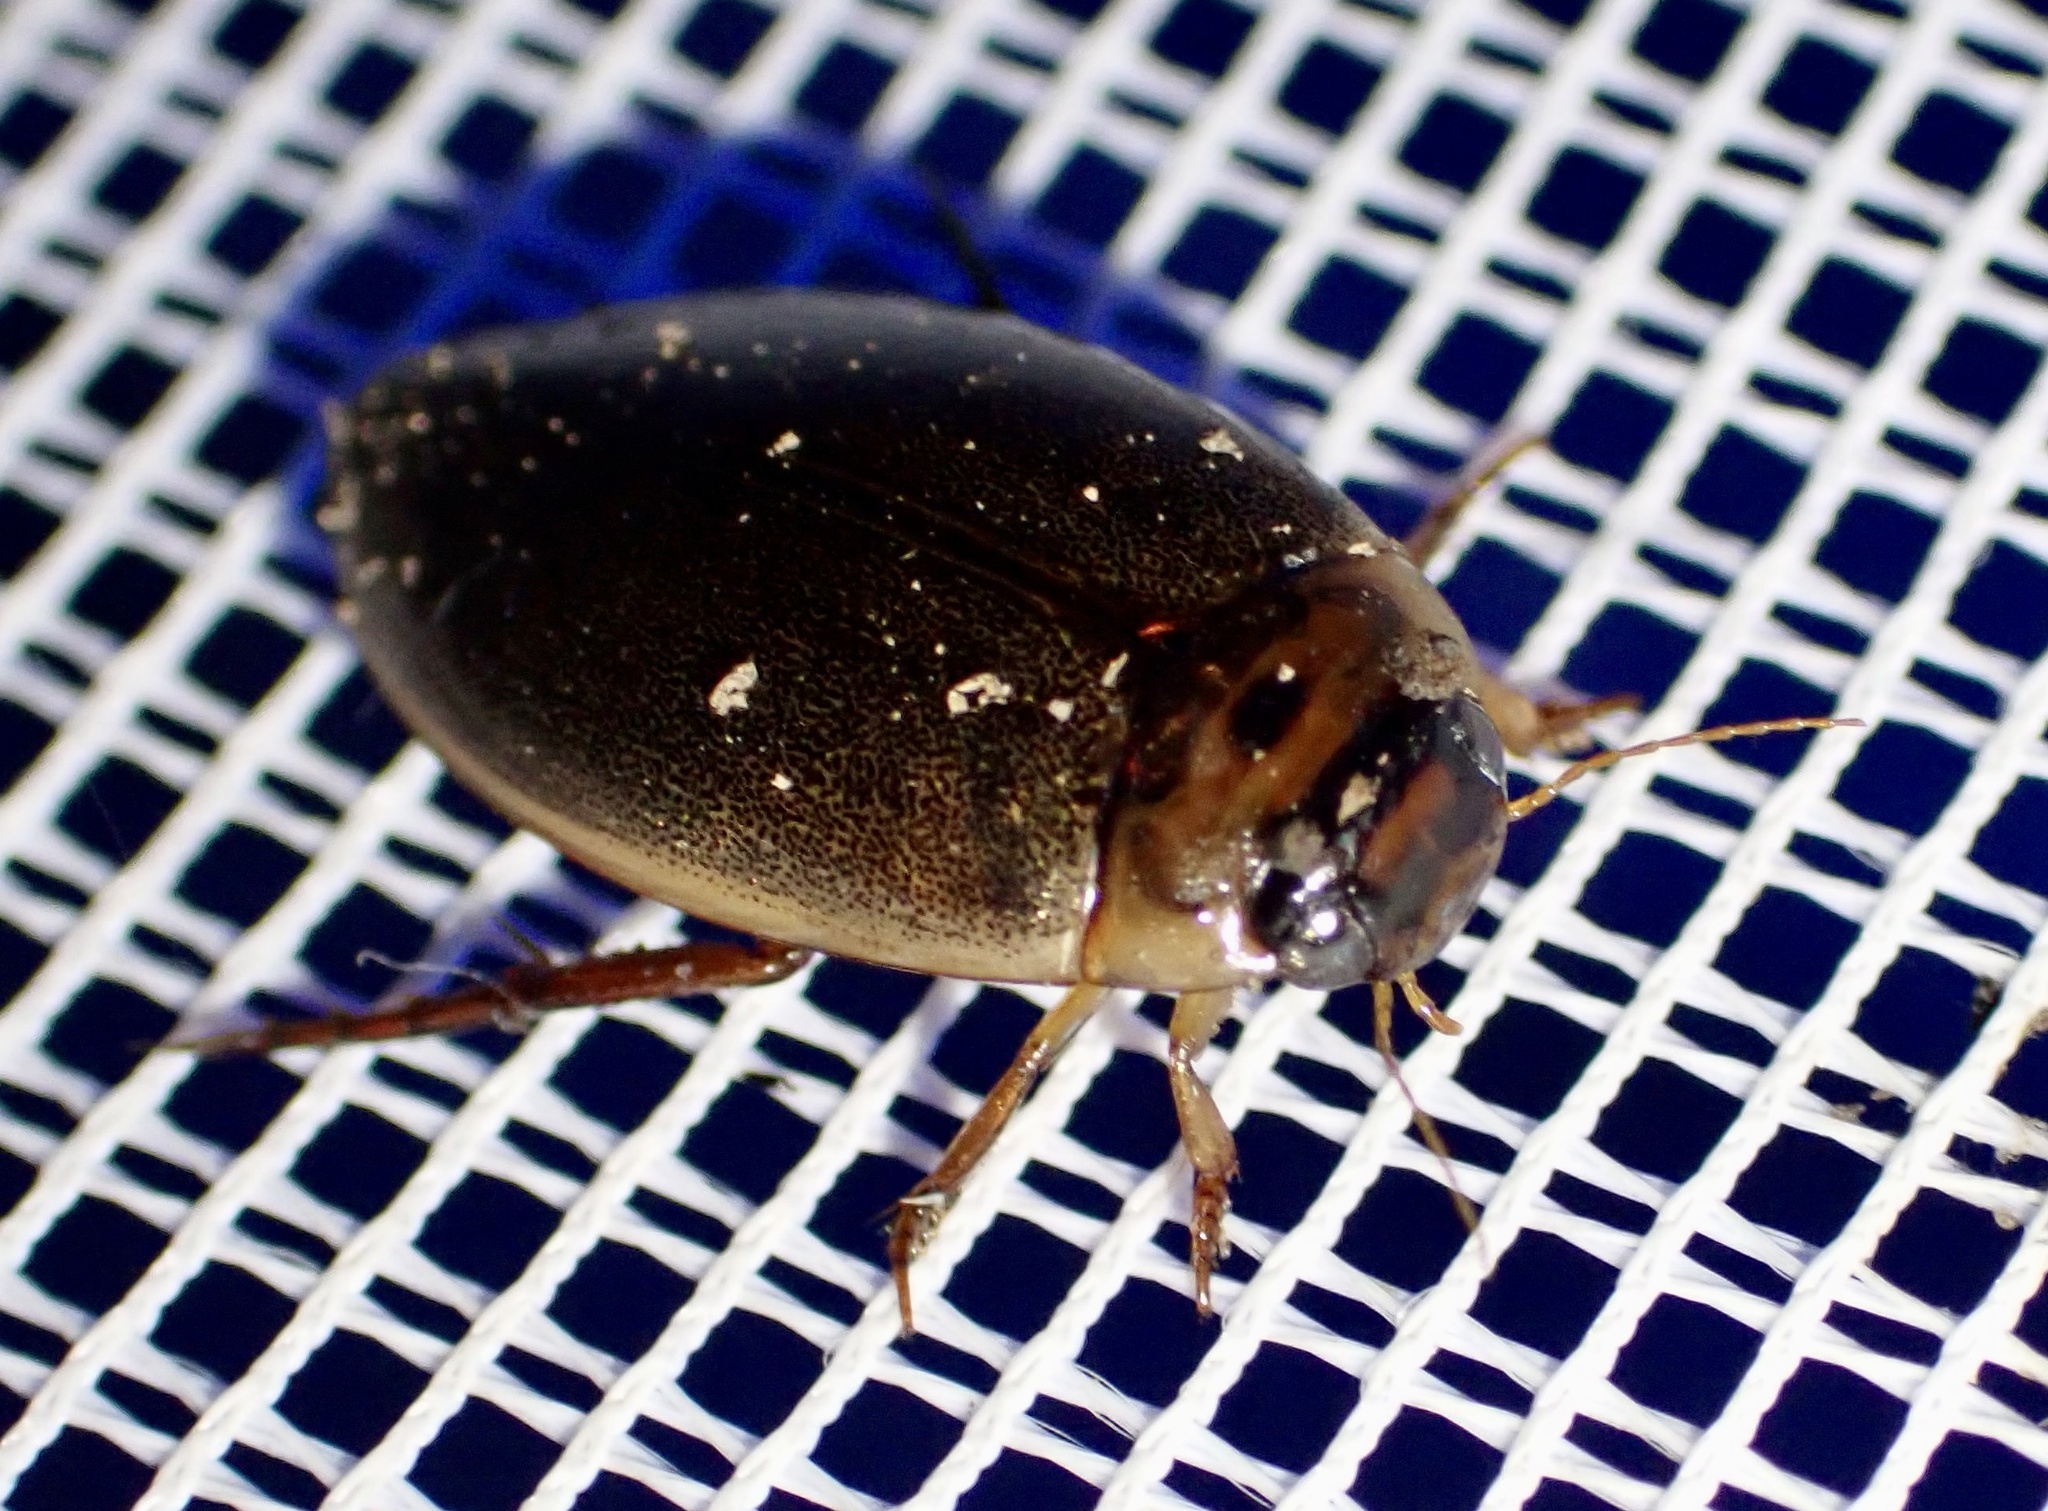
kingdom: Animalia
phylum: Arthropoda
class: Insecta
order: Coleoptera
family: Dytiscidae
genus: Rhantus
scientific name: Rhantus suturalis
